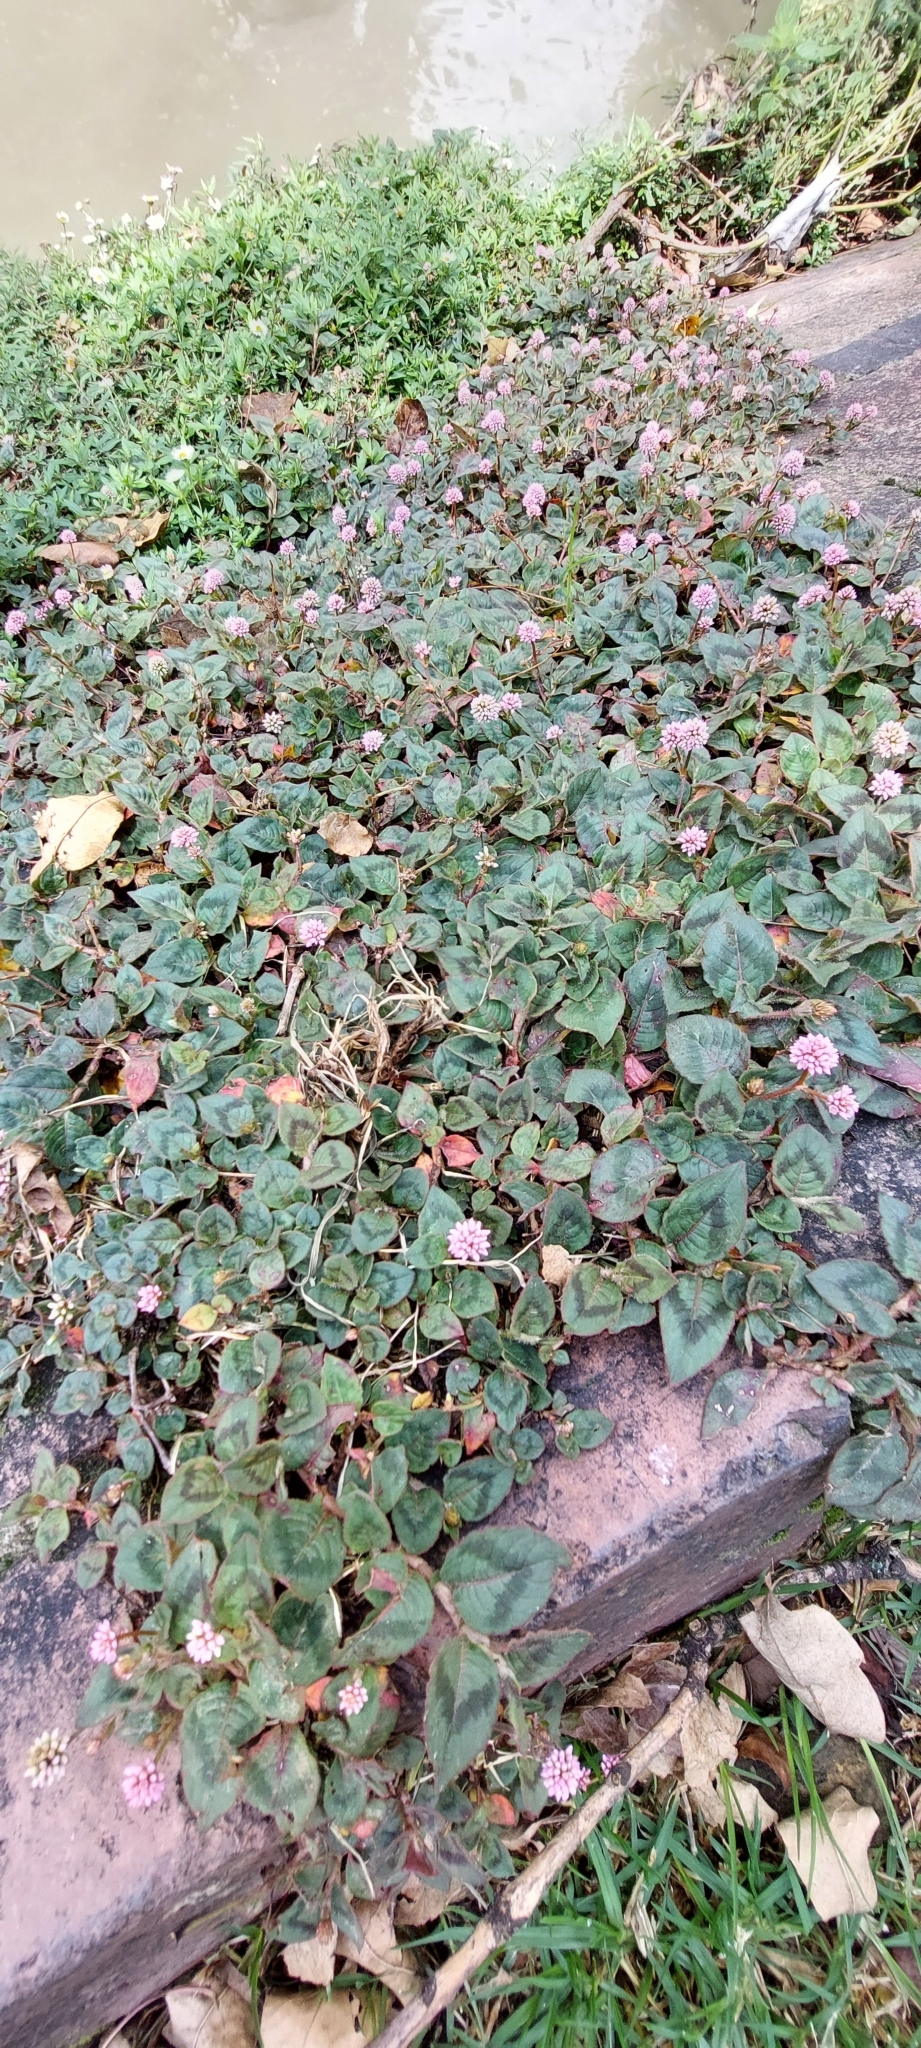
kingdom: Plantae
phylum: Tracheophyta
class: Magnoliopsida
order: Caryophyllales
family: Polygonaceae
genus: Persicaria
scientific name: Persicaria capitata
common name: Pinkhead smartweed
